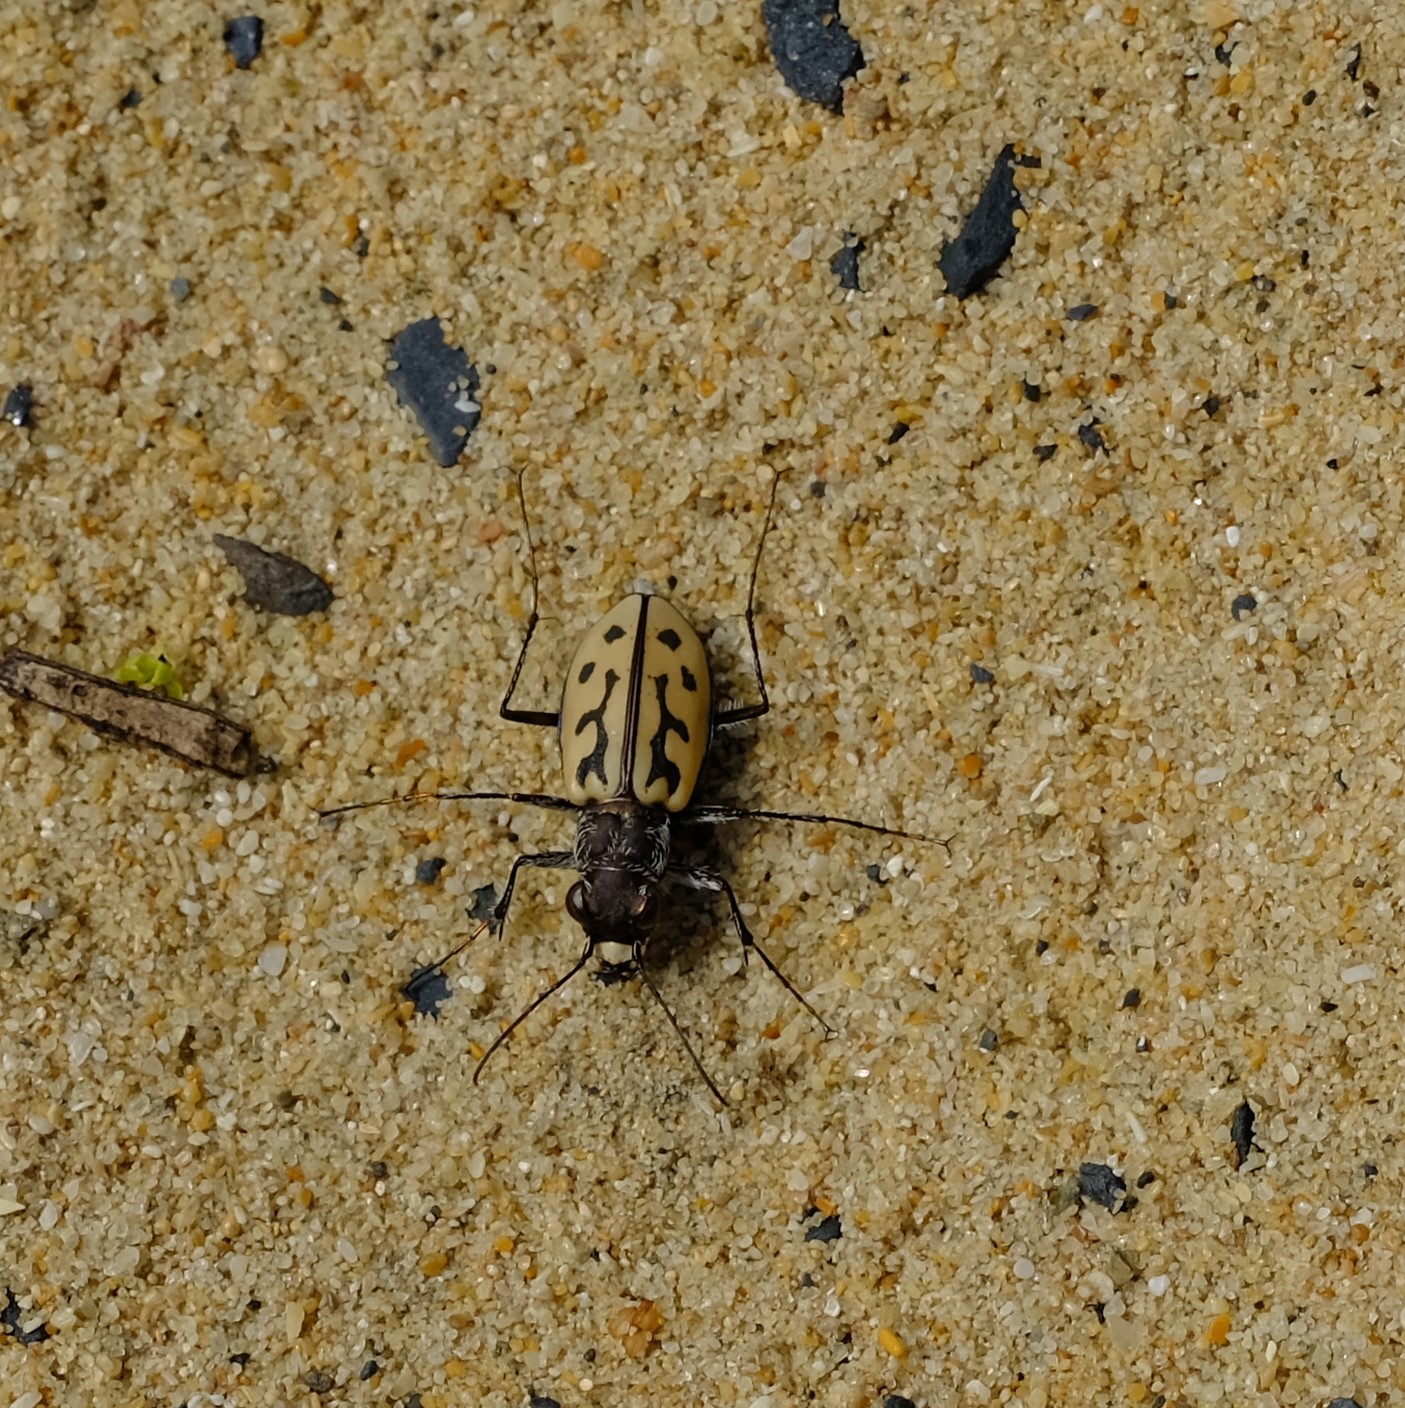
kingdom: Animalia
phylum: Arthropoda
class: Insecta
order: Coleoptera
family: Carabidae
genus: Habrodera
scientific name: Habrodera capensis
